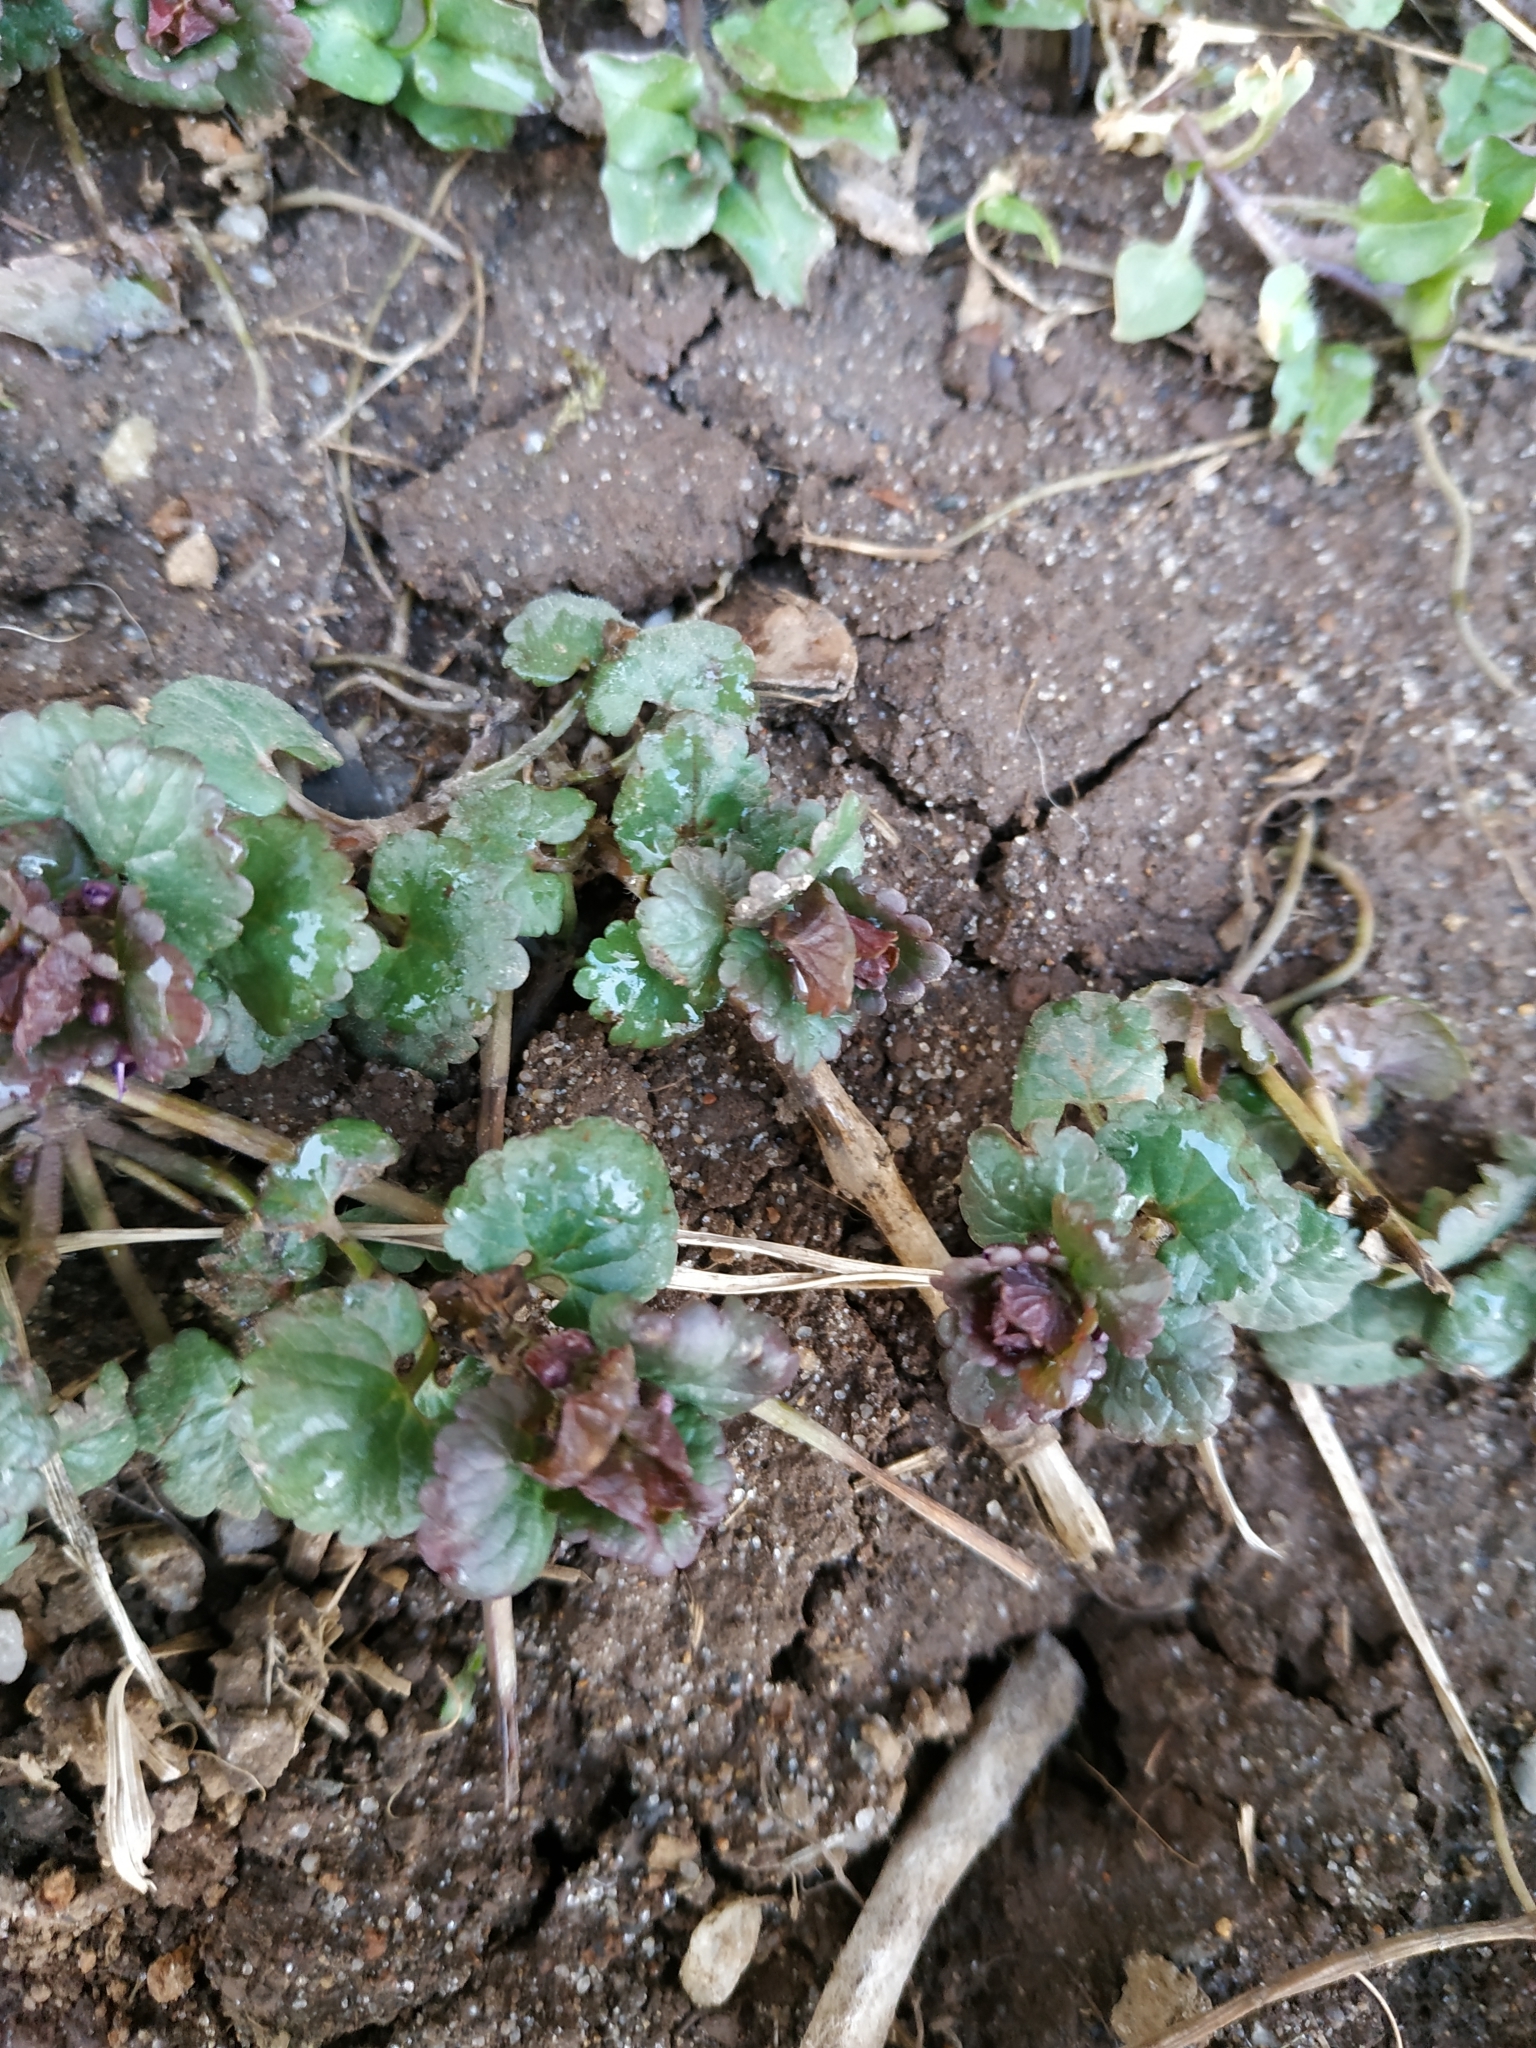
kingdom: Plantae
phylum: Tracheophyta
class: Magnoliopsida
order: Lamiales
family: Lamiaceae
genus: Glechoma
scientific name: Glechoma hederacea
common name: Ground ivy
